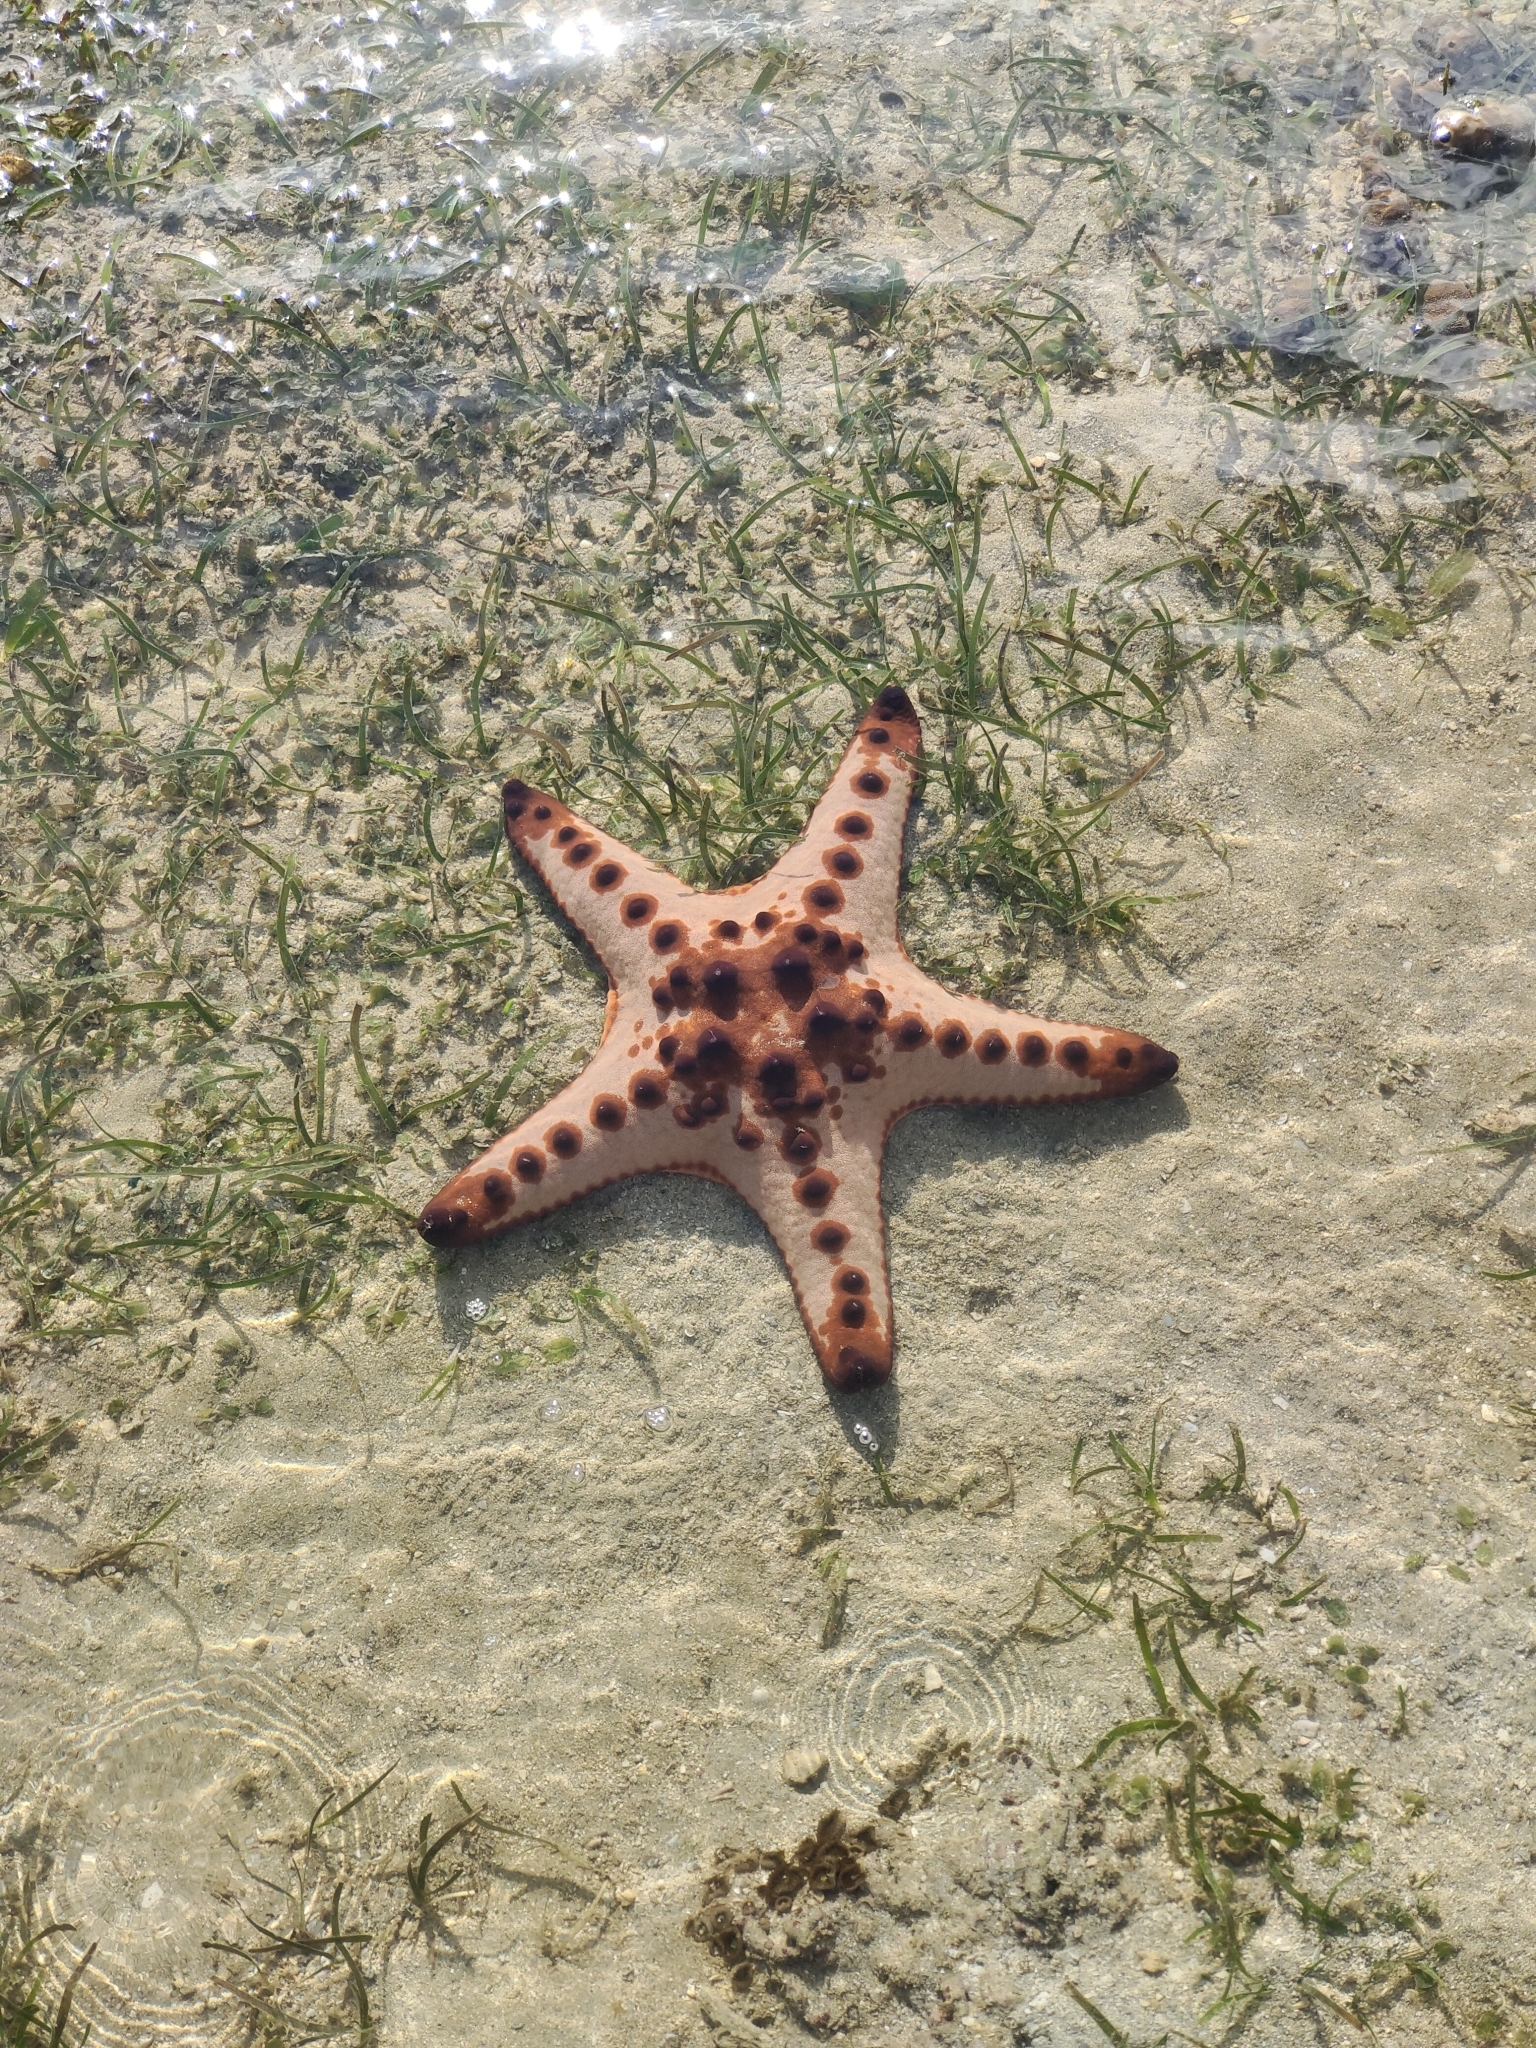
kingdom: Animalia
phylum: Echinodermata
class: Asteroidea
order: Valvatida
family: Oreasteridae
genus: Protoreaster
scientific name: Protoreaster nodosus
